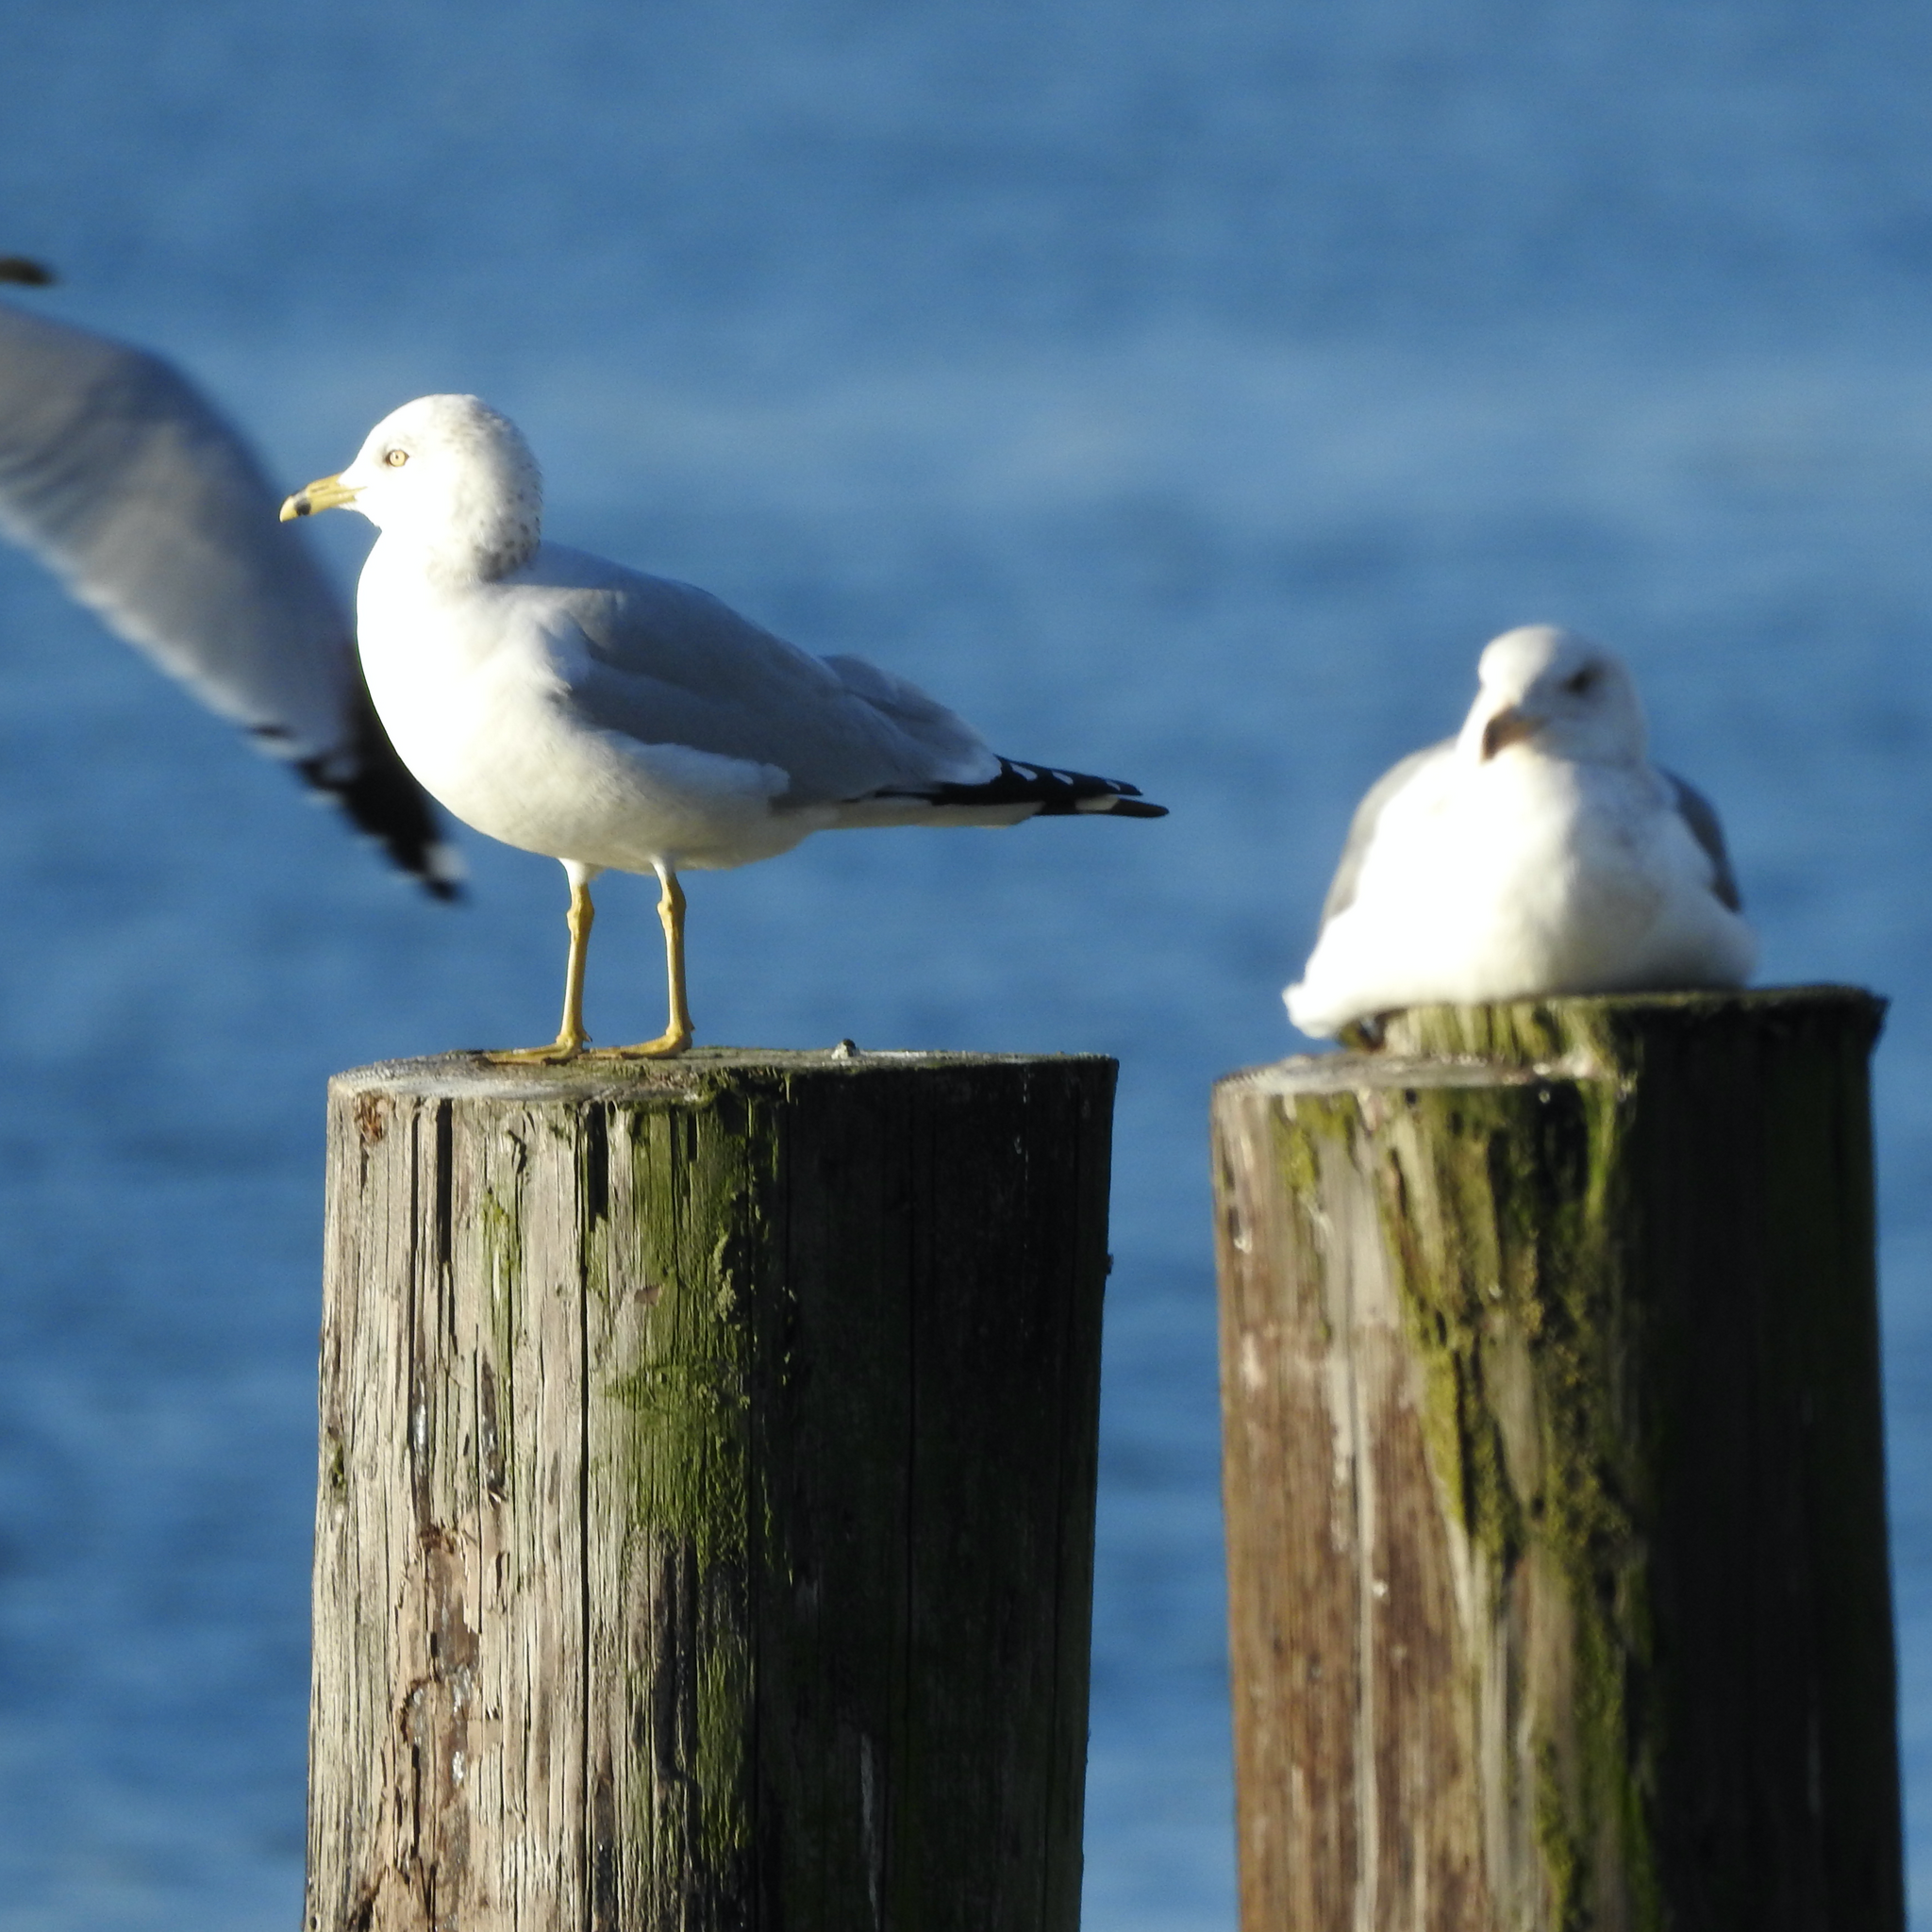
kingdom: Animalia
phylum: Chordata
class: Aves
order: Charadriiformes
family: Laridae
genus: Larus
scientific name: Larus delawarensis
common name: Ring-billed gull
